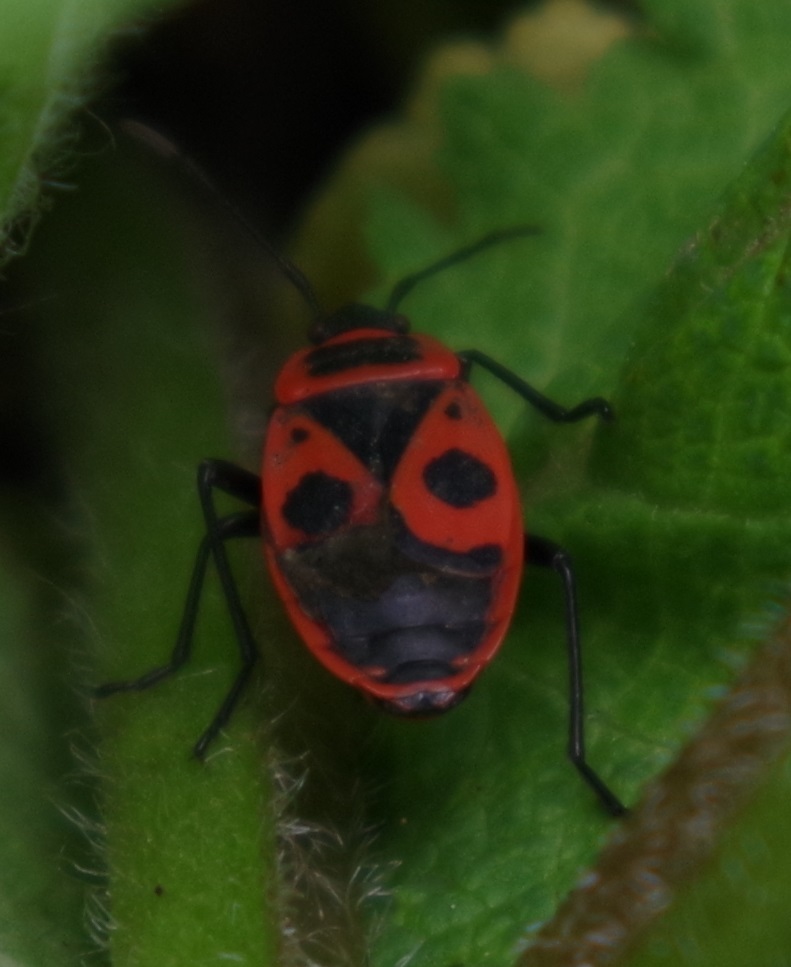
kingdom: Animalia
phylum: Arthropoda
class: Insecta
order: Hemiptera
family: Pyrrhocoridae
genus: Pyrrhocoris
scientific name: Pyrrhocoris apterus
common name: Firebug
